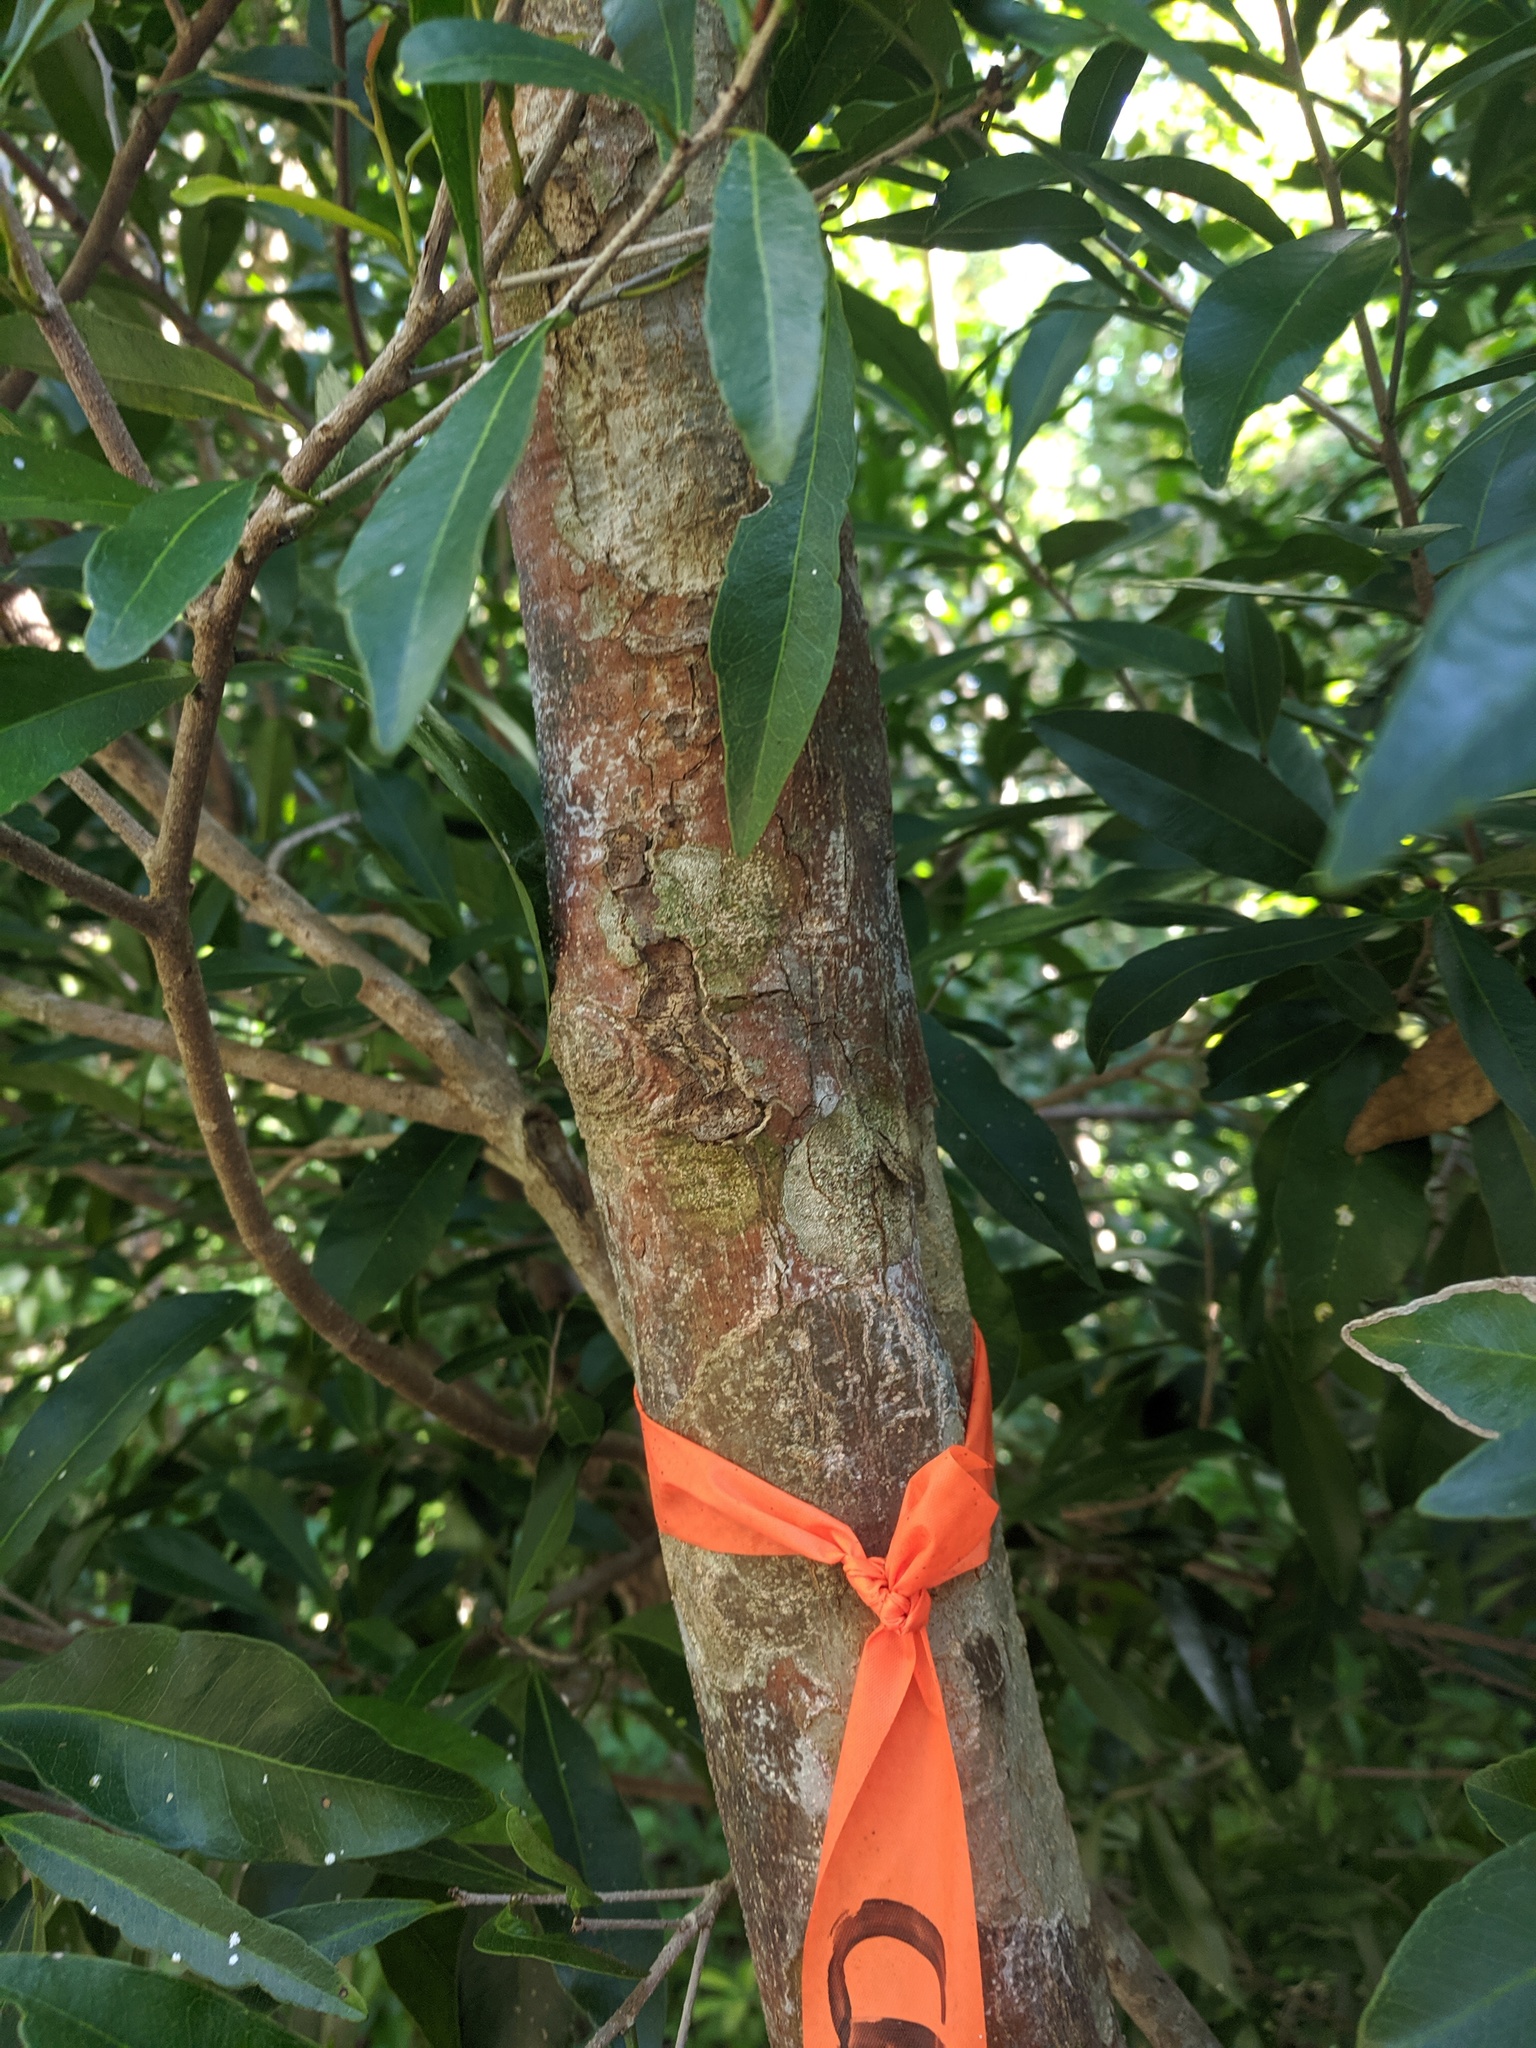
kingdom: Plantae
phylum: Tracheophyta
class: Magnoliopsida
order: Malpighiales
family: Euphorbiaceae
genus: Gymnanthes
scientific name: Gymnanthes lucida
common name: Oysterwood
